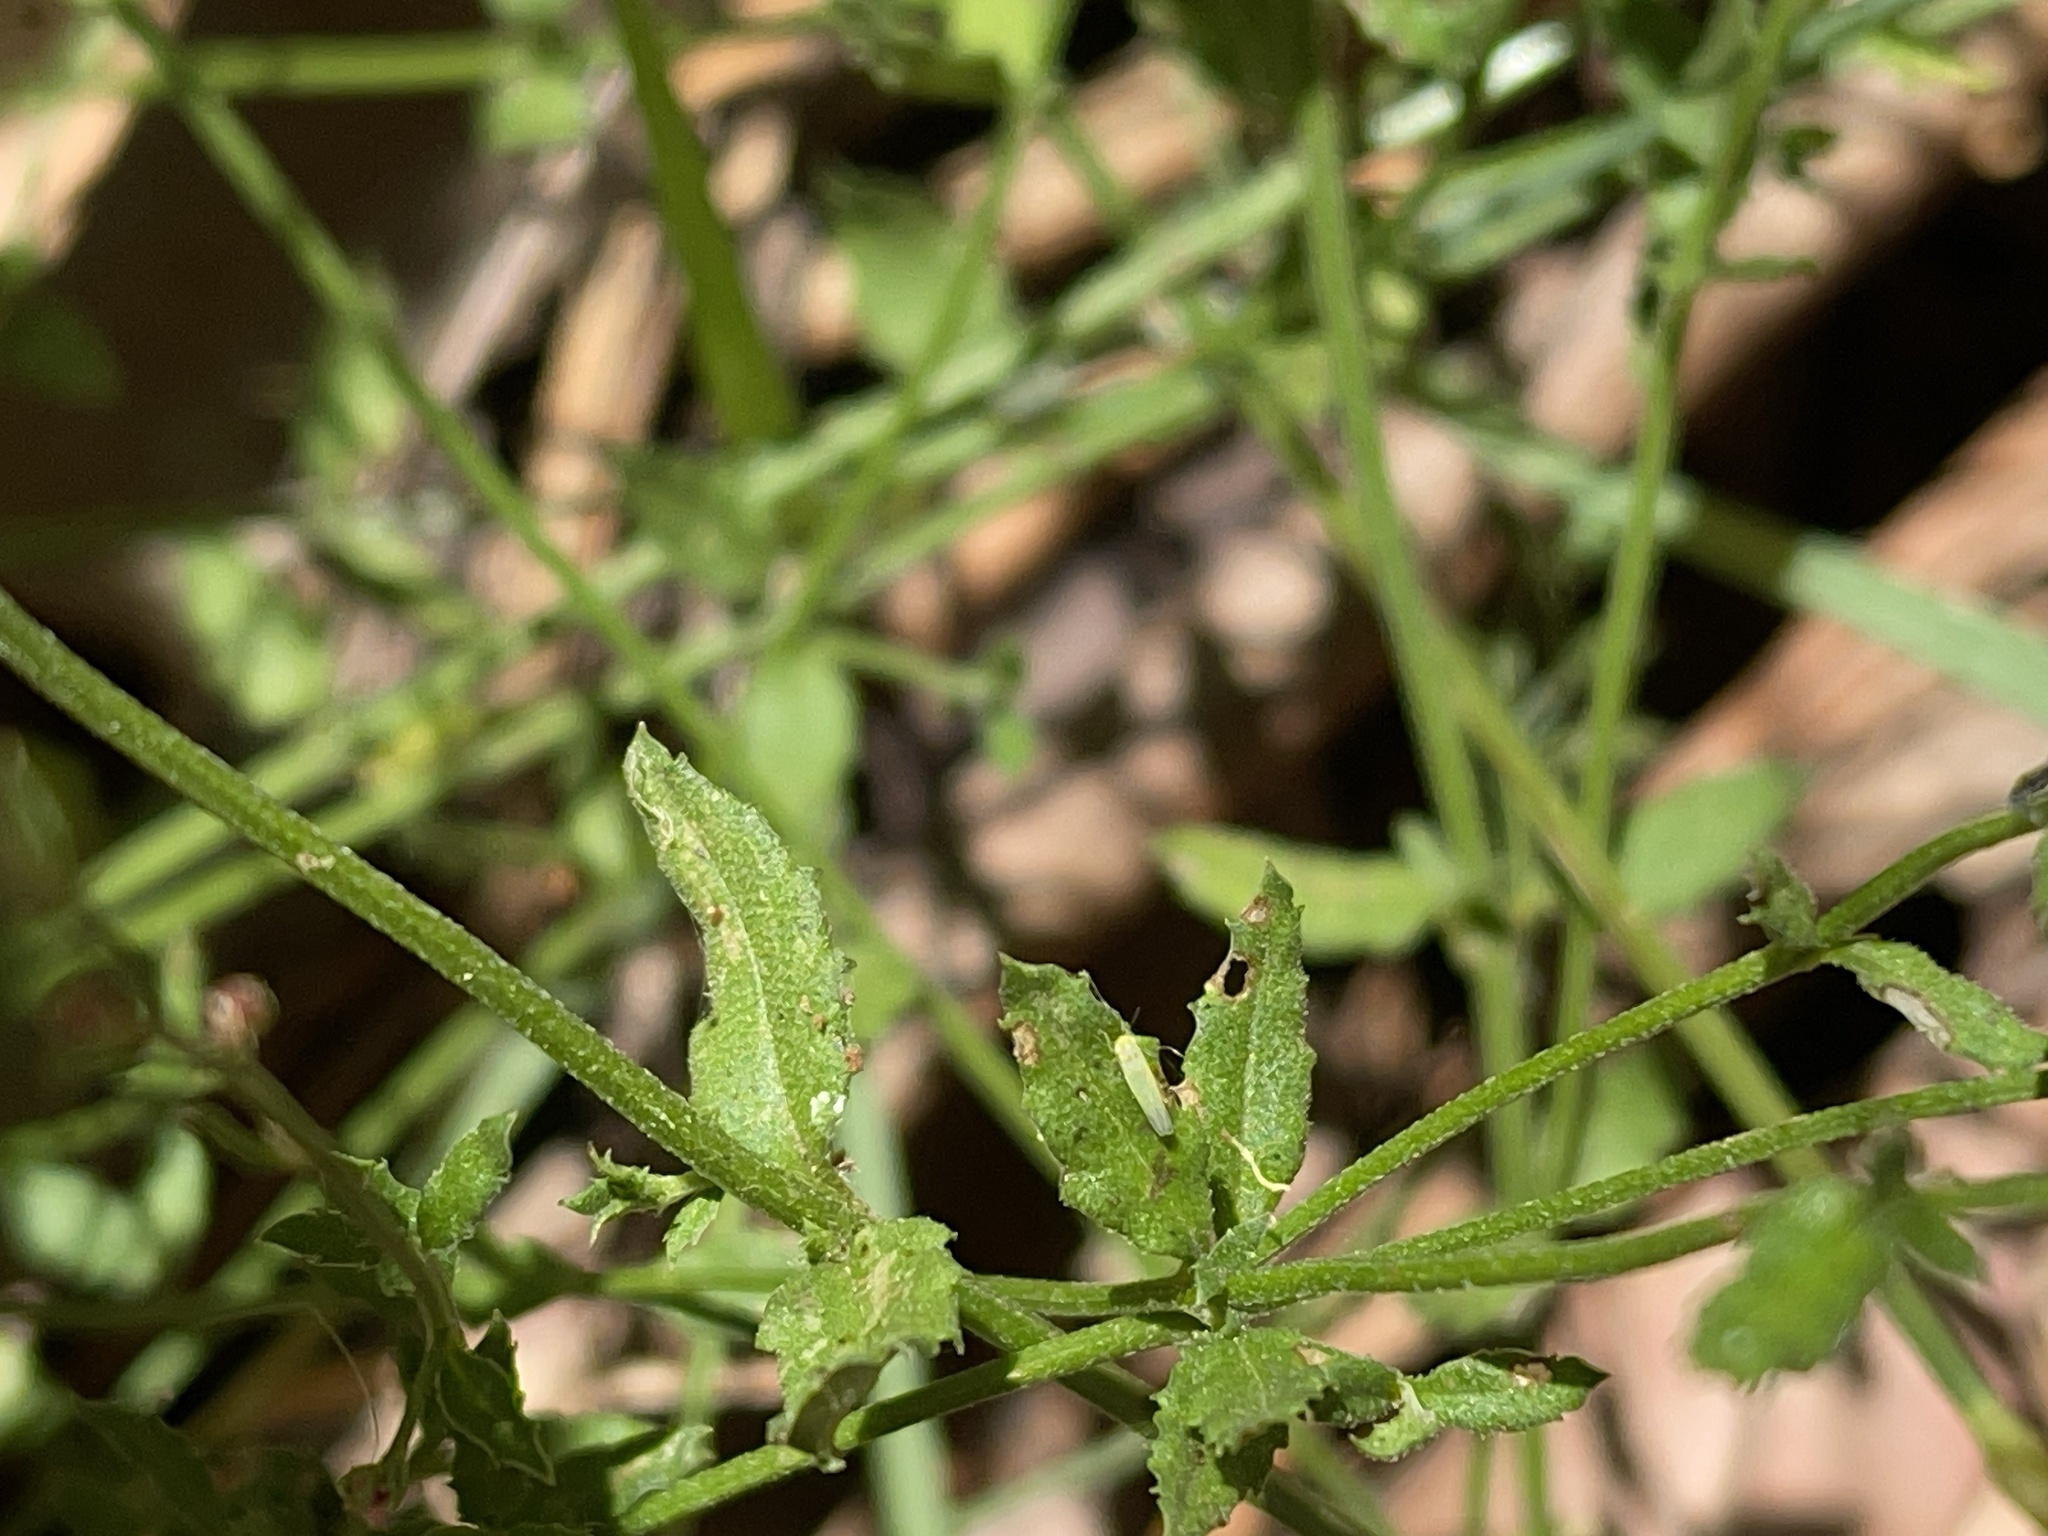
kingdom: Plantae
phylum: Tracheophyta
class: Magnoliopsida
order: Saxifragales
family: Haloragaceae
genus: Gonocarpus
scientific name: Gonocarpus tetragynus
